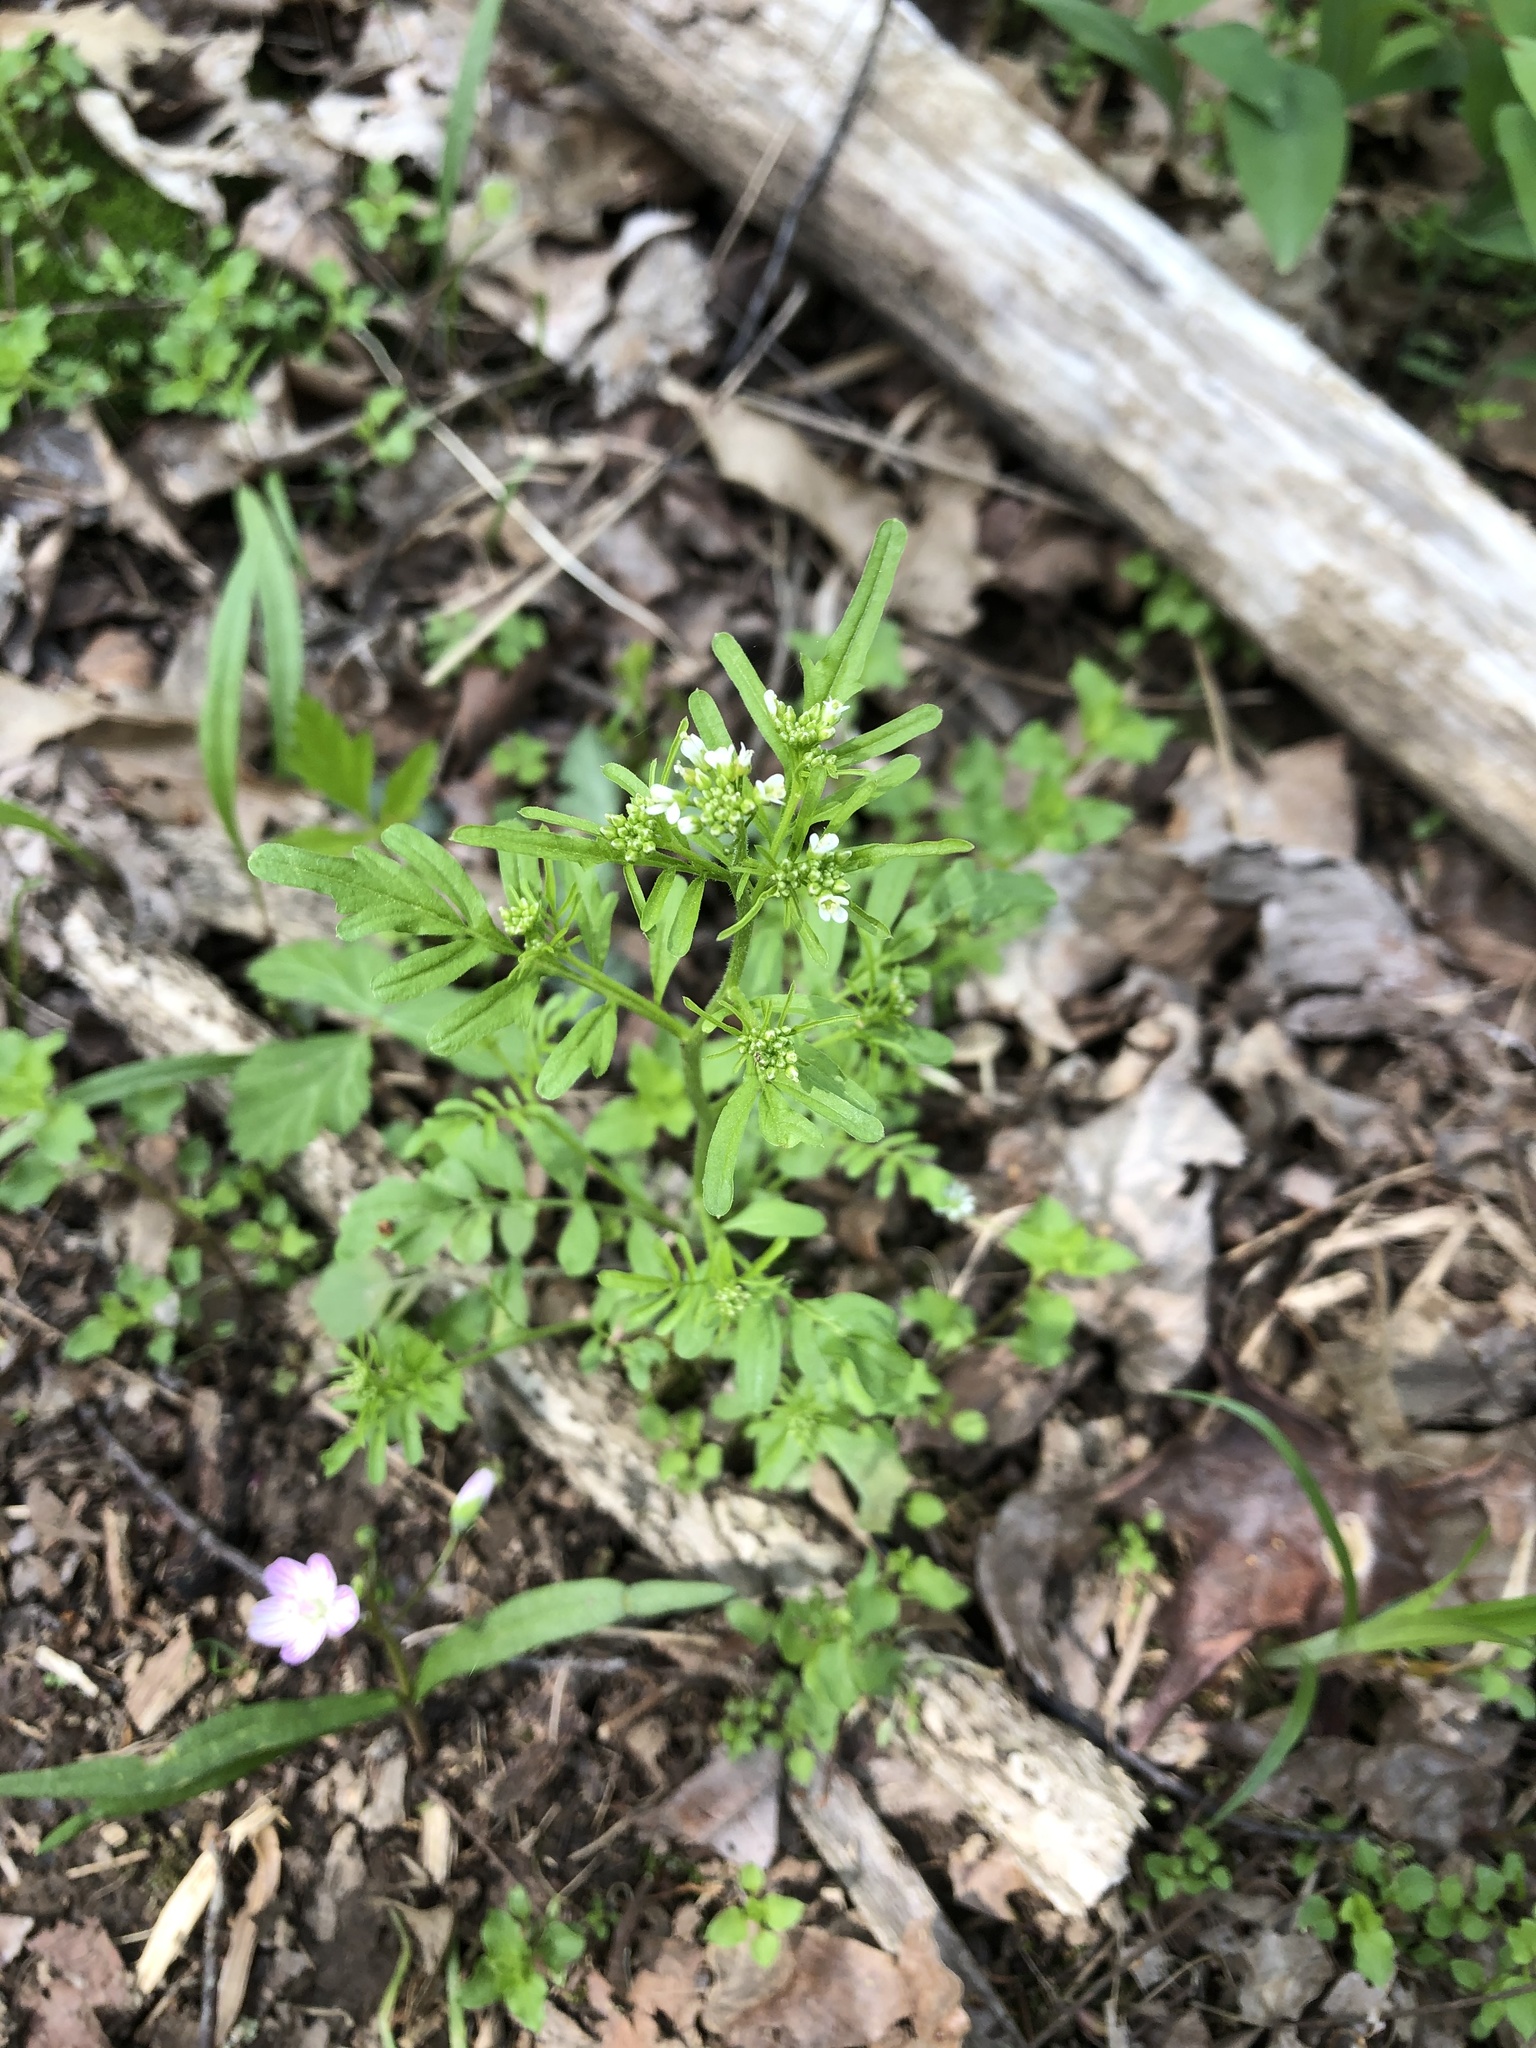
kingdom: Plantae
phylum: Tracheophyta
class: Magnoliopsida
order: Brassicales
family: Brassicaceae
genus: Cardamine
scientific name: Cardamine pensylvanica
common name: Pennsylvania bittercress
